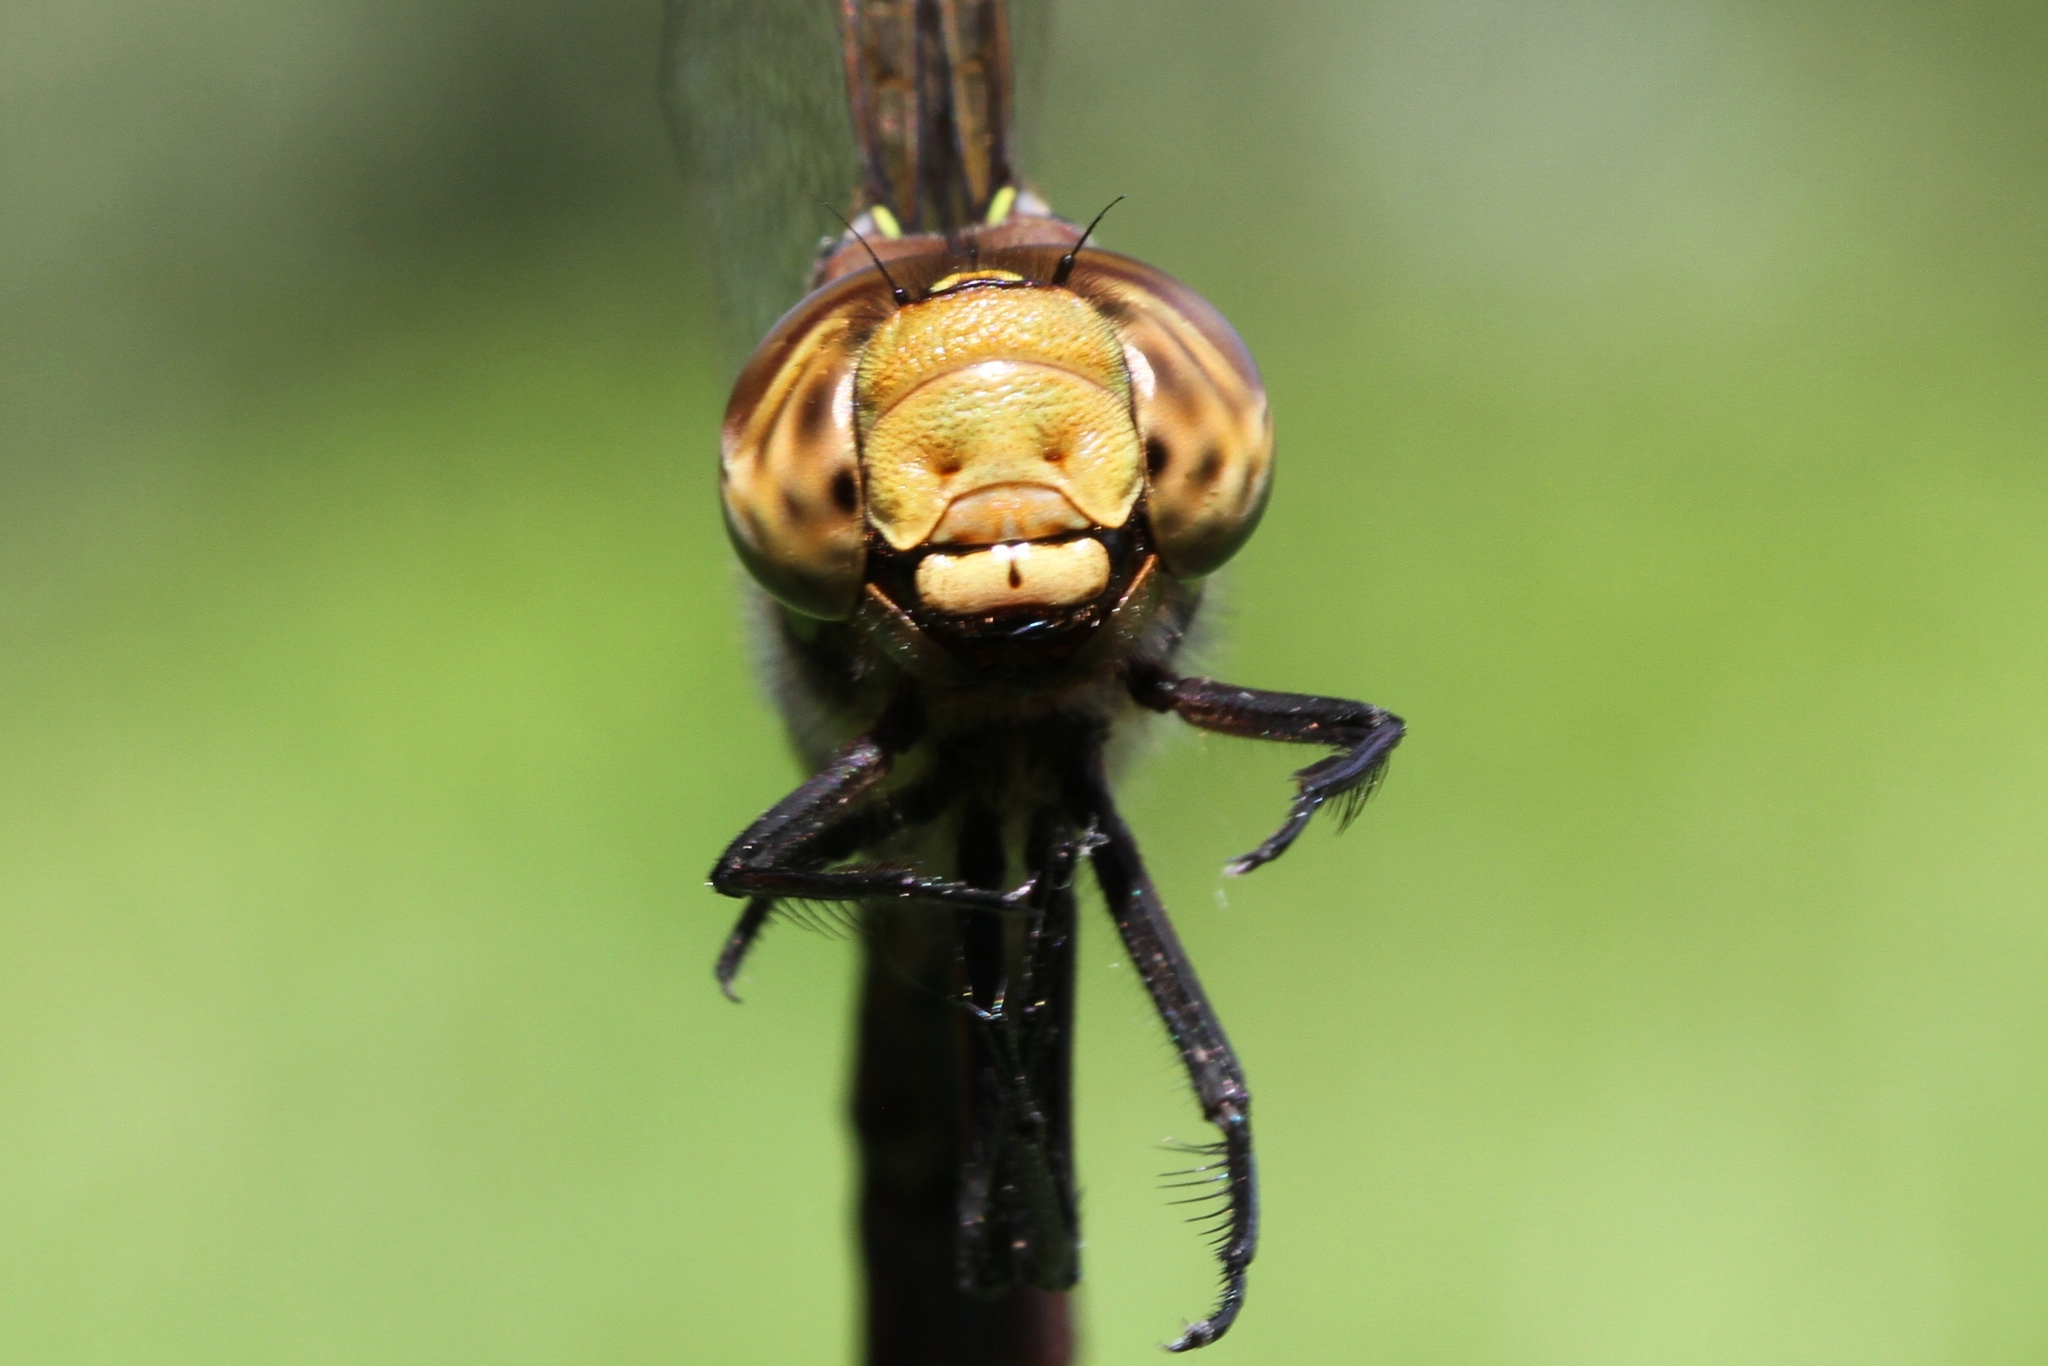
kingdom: Animalia
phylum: Arthropoda
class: Insecta
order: Odonata
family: Aeshnidae
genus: Aeshna
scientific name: Aeshna constricta
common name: Lance-tipped darner
